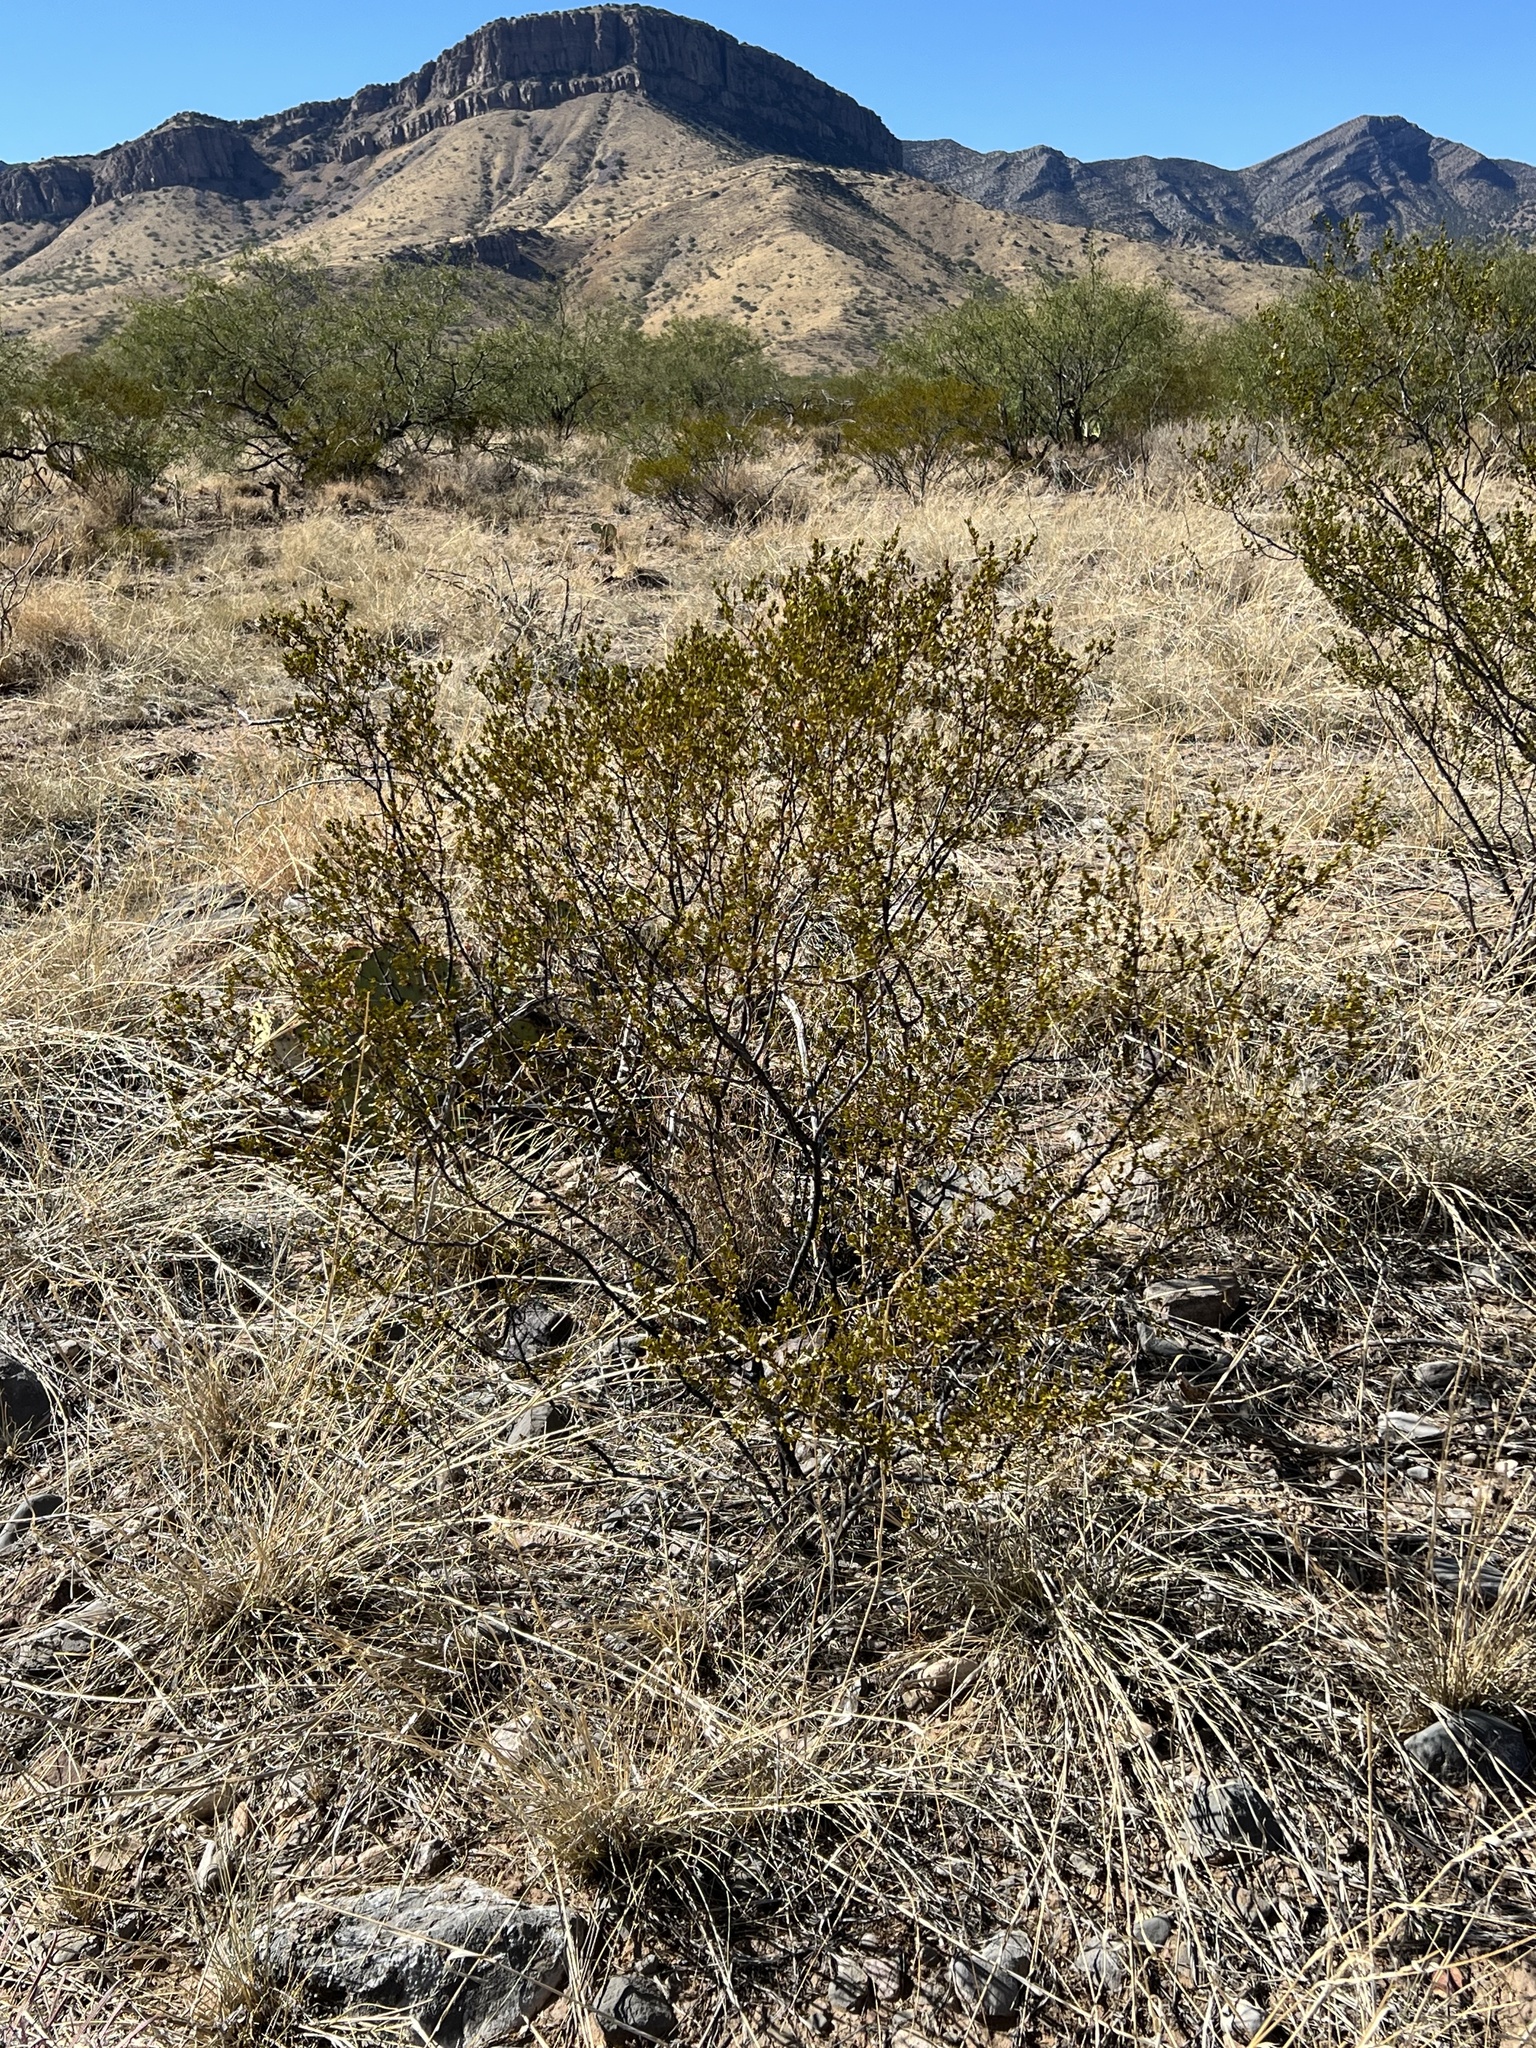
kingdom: Plantae
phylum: Tracheophyta
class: Magnoliopsida
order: Zygophyllales
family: Zygophyllaceae
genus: Larrea
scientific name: Larrea tridentata
